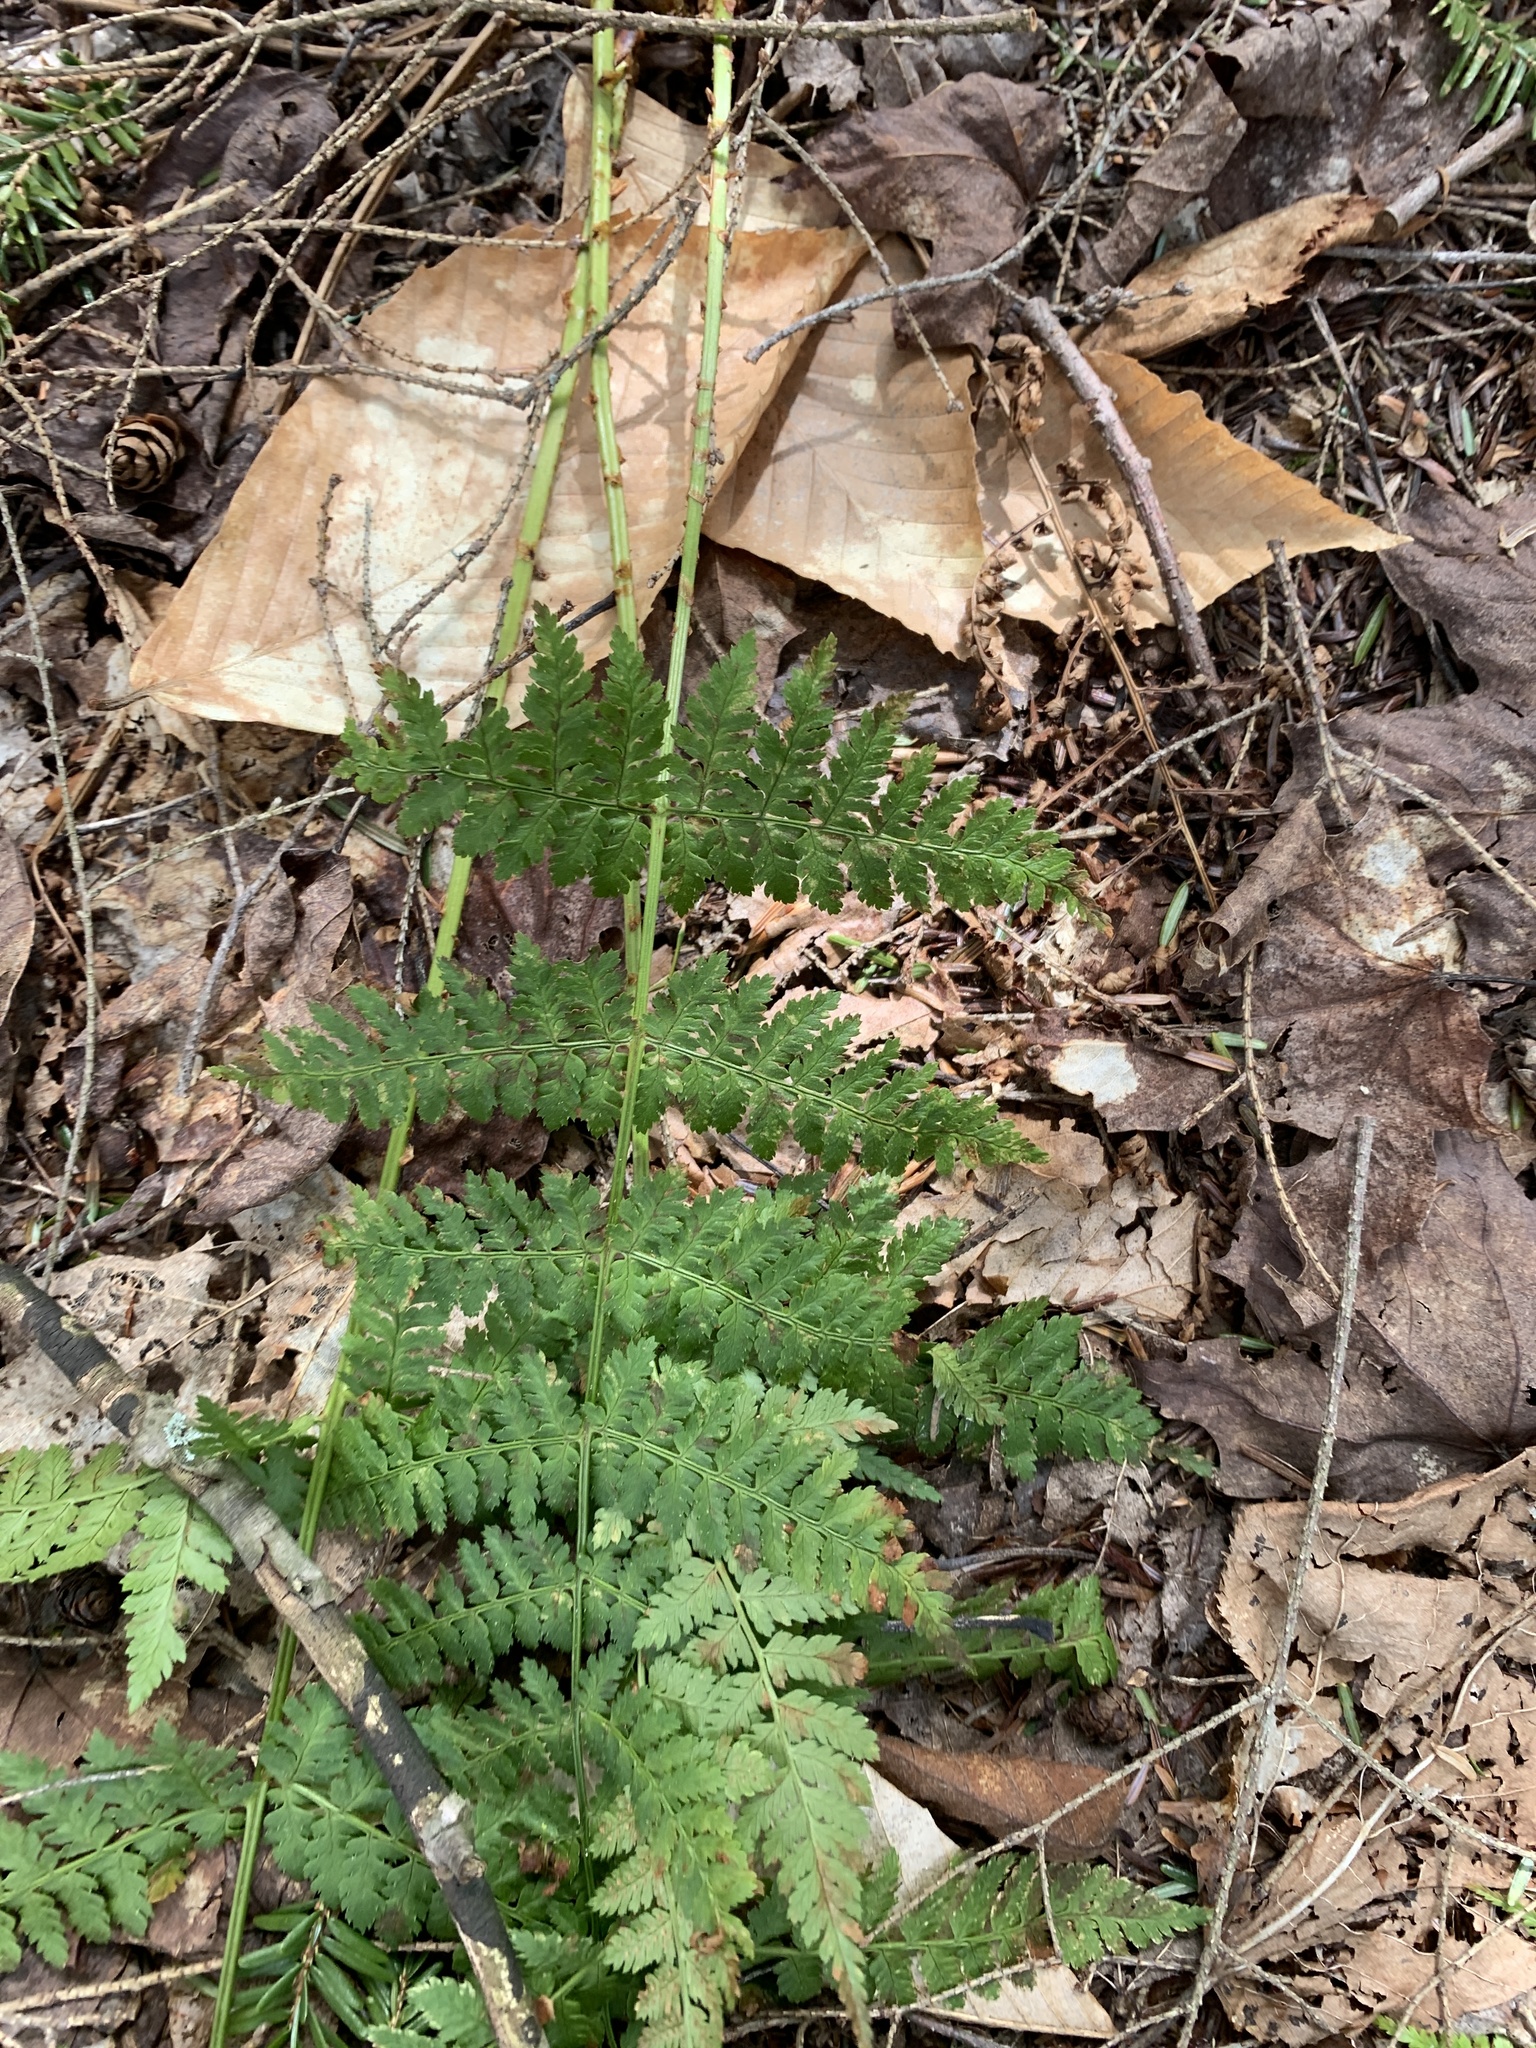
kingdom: Plantae
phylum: Tracheophyta
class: Polypodiopsida
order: Polypodiales
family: Dryopteridaceae
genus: Dryopteris
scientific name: Dryopteris intermedia
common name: Evergreen wood fern
